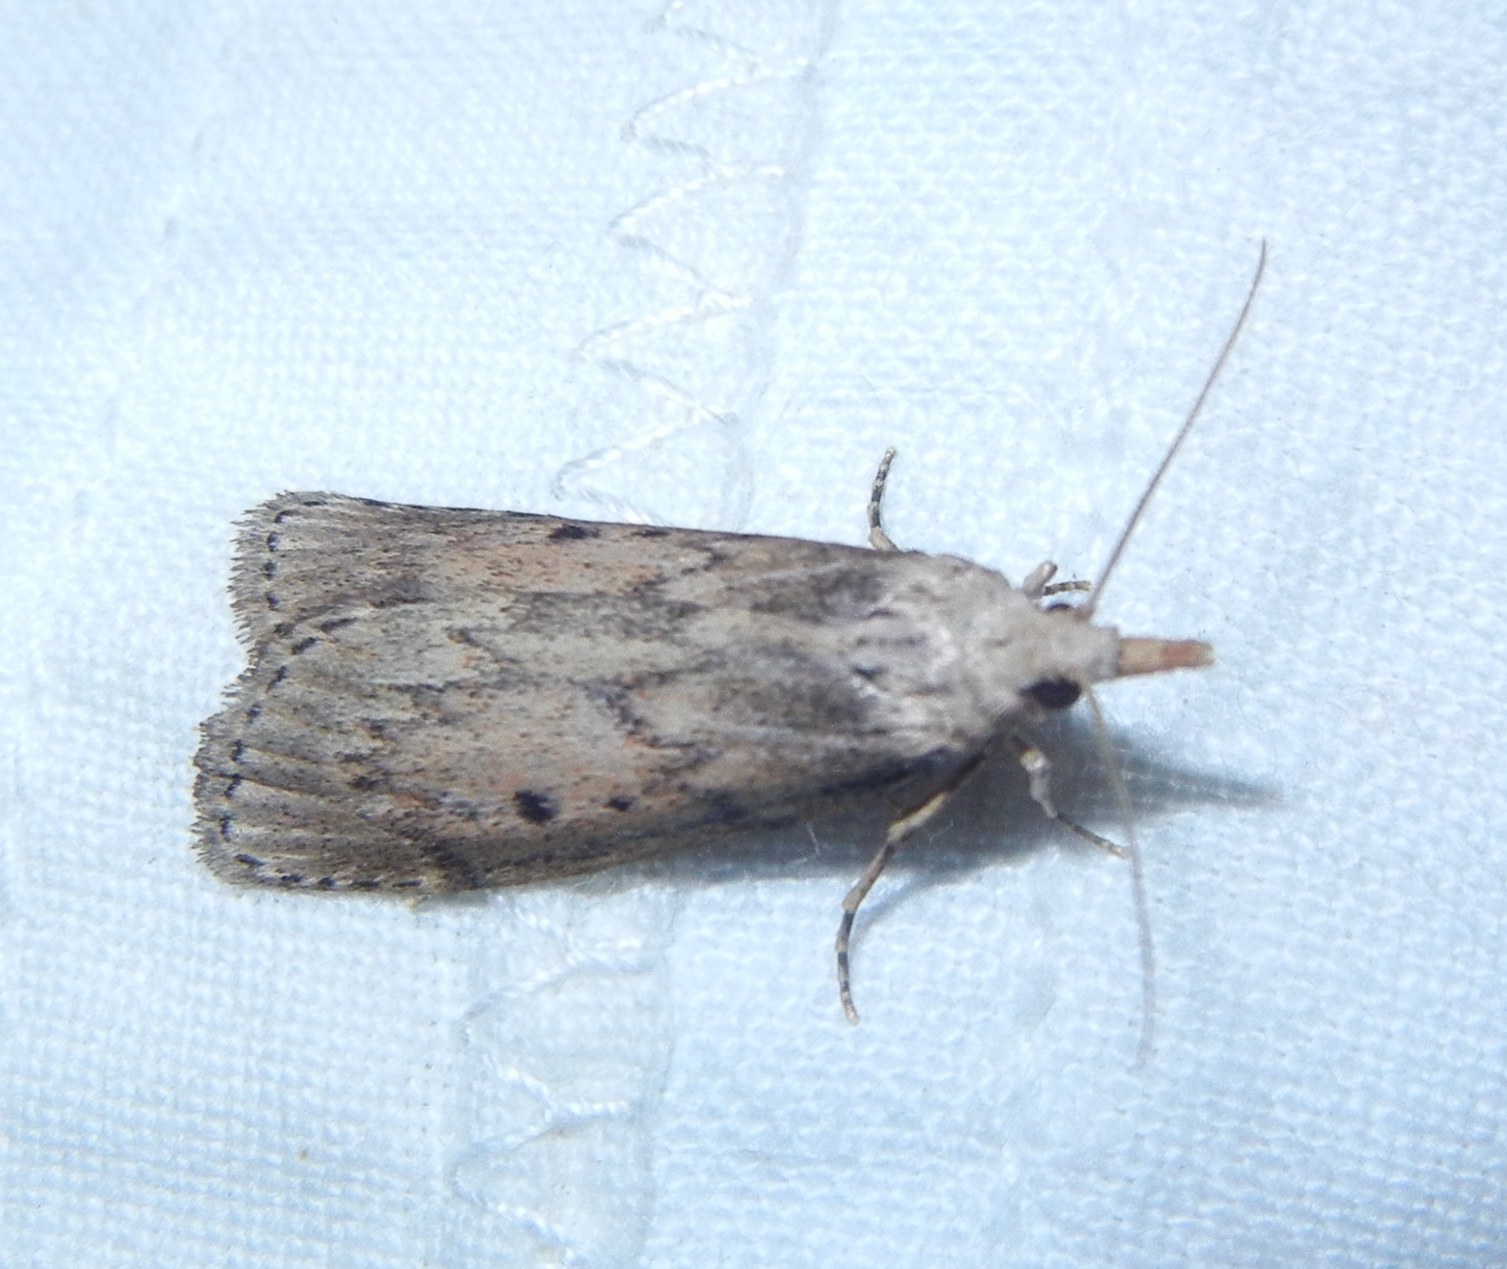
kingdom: Animalia
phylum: Arthropoda
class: Insecta
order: Lepidoptera
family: Pyralidae
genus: Aphomia
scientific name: Aphomia sociella
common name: Bee moth
